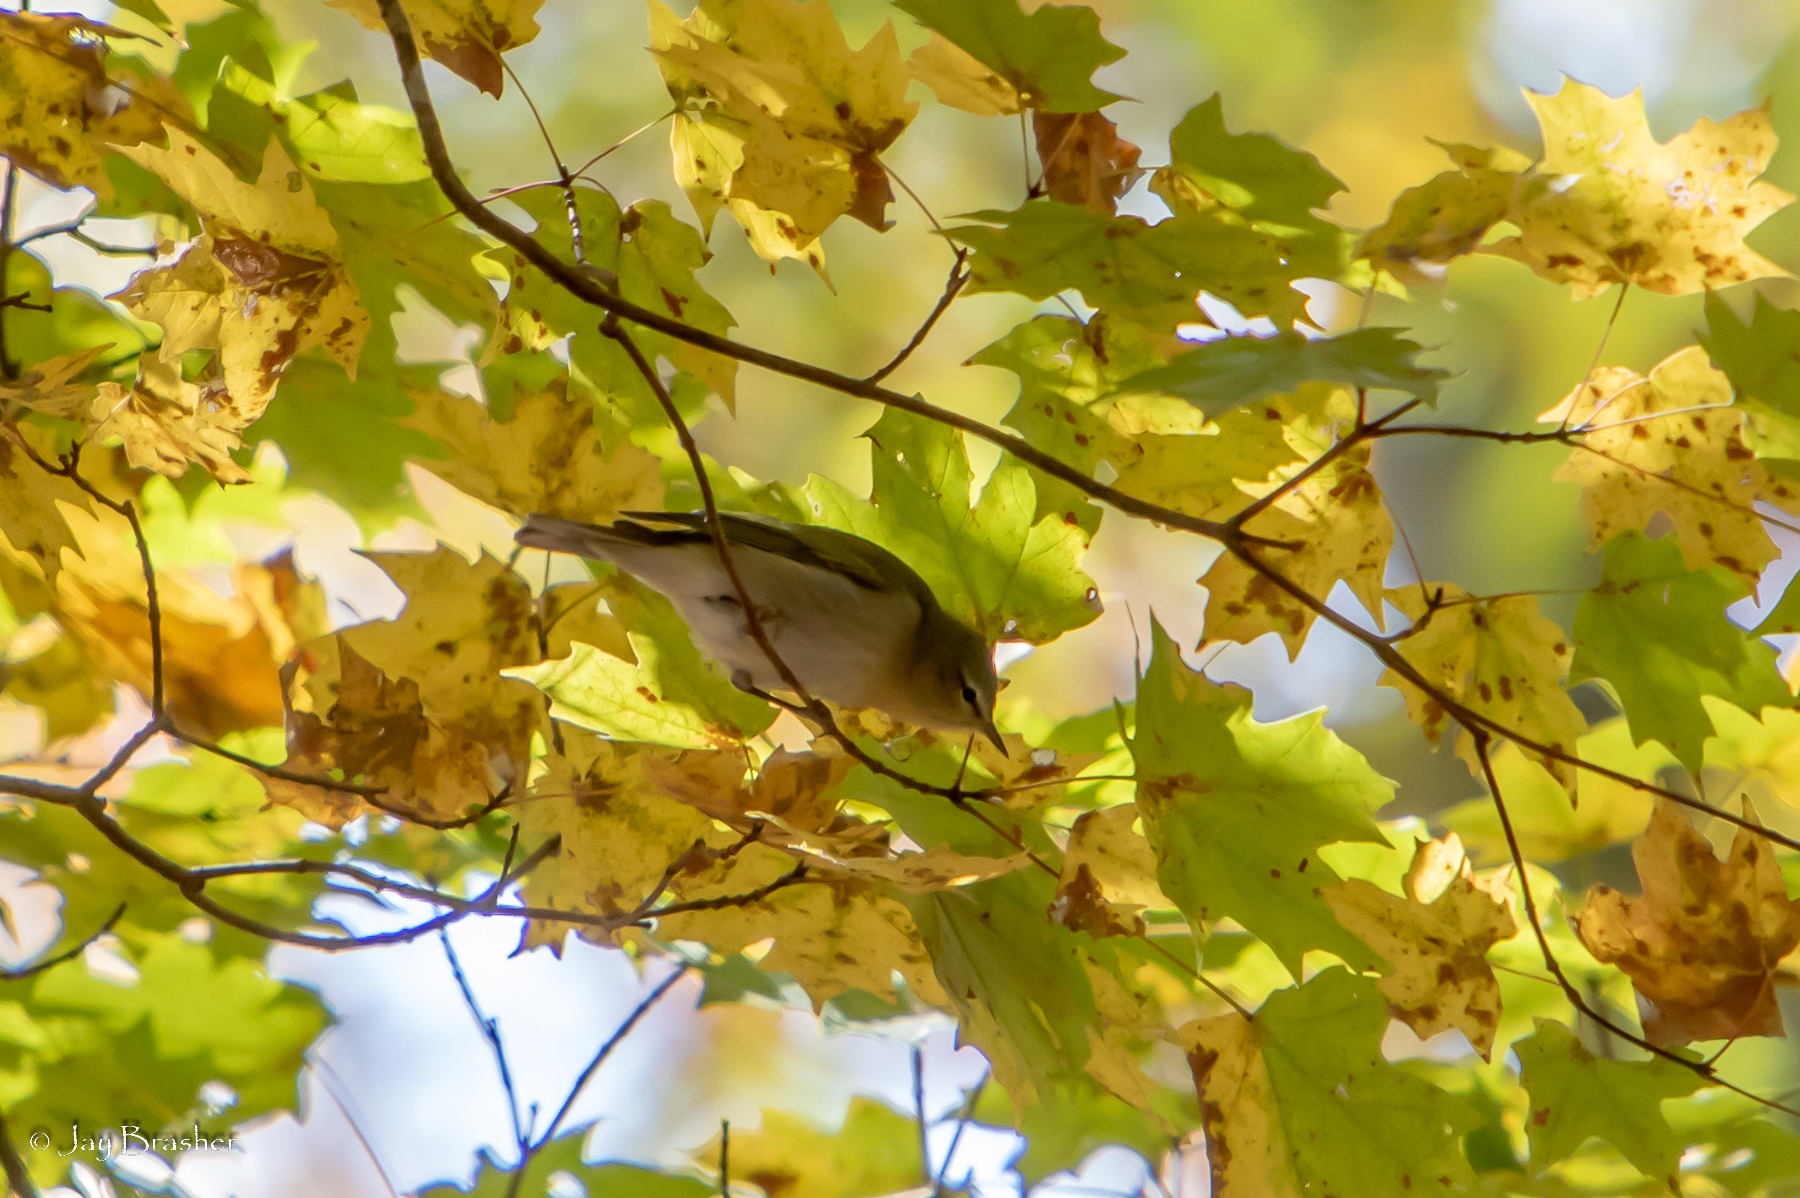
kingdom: Animalia
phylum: Chordata
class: Aves
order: Passeriformes
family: Parulidae
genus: Leiothlypis
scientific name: Leiothlypis peregrina
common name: Tennessee warbler
